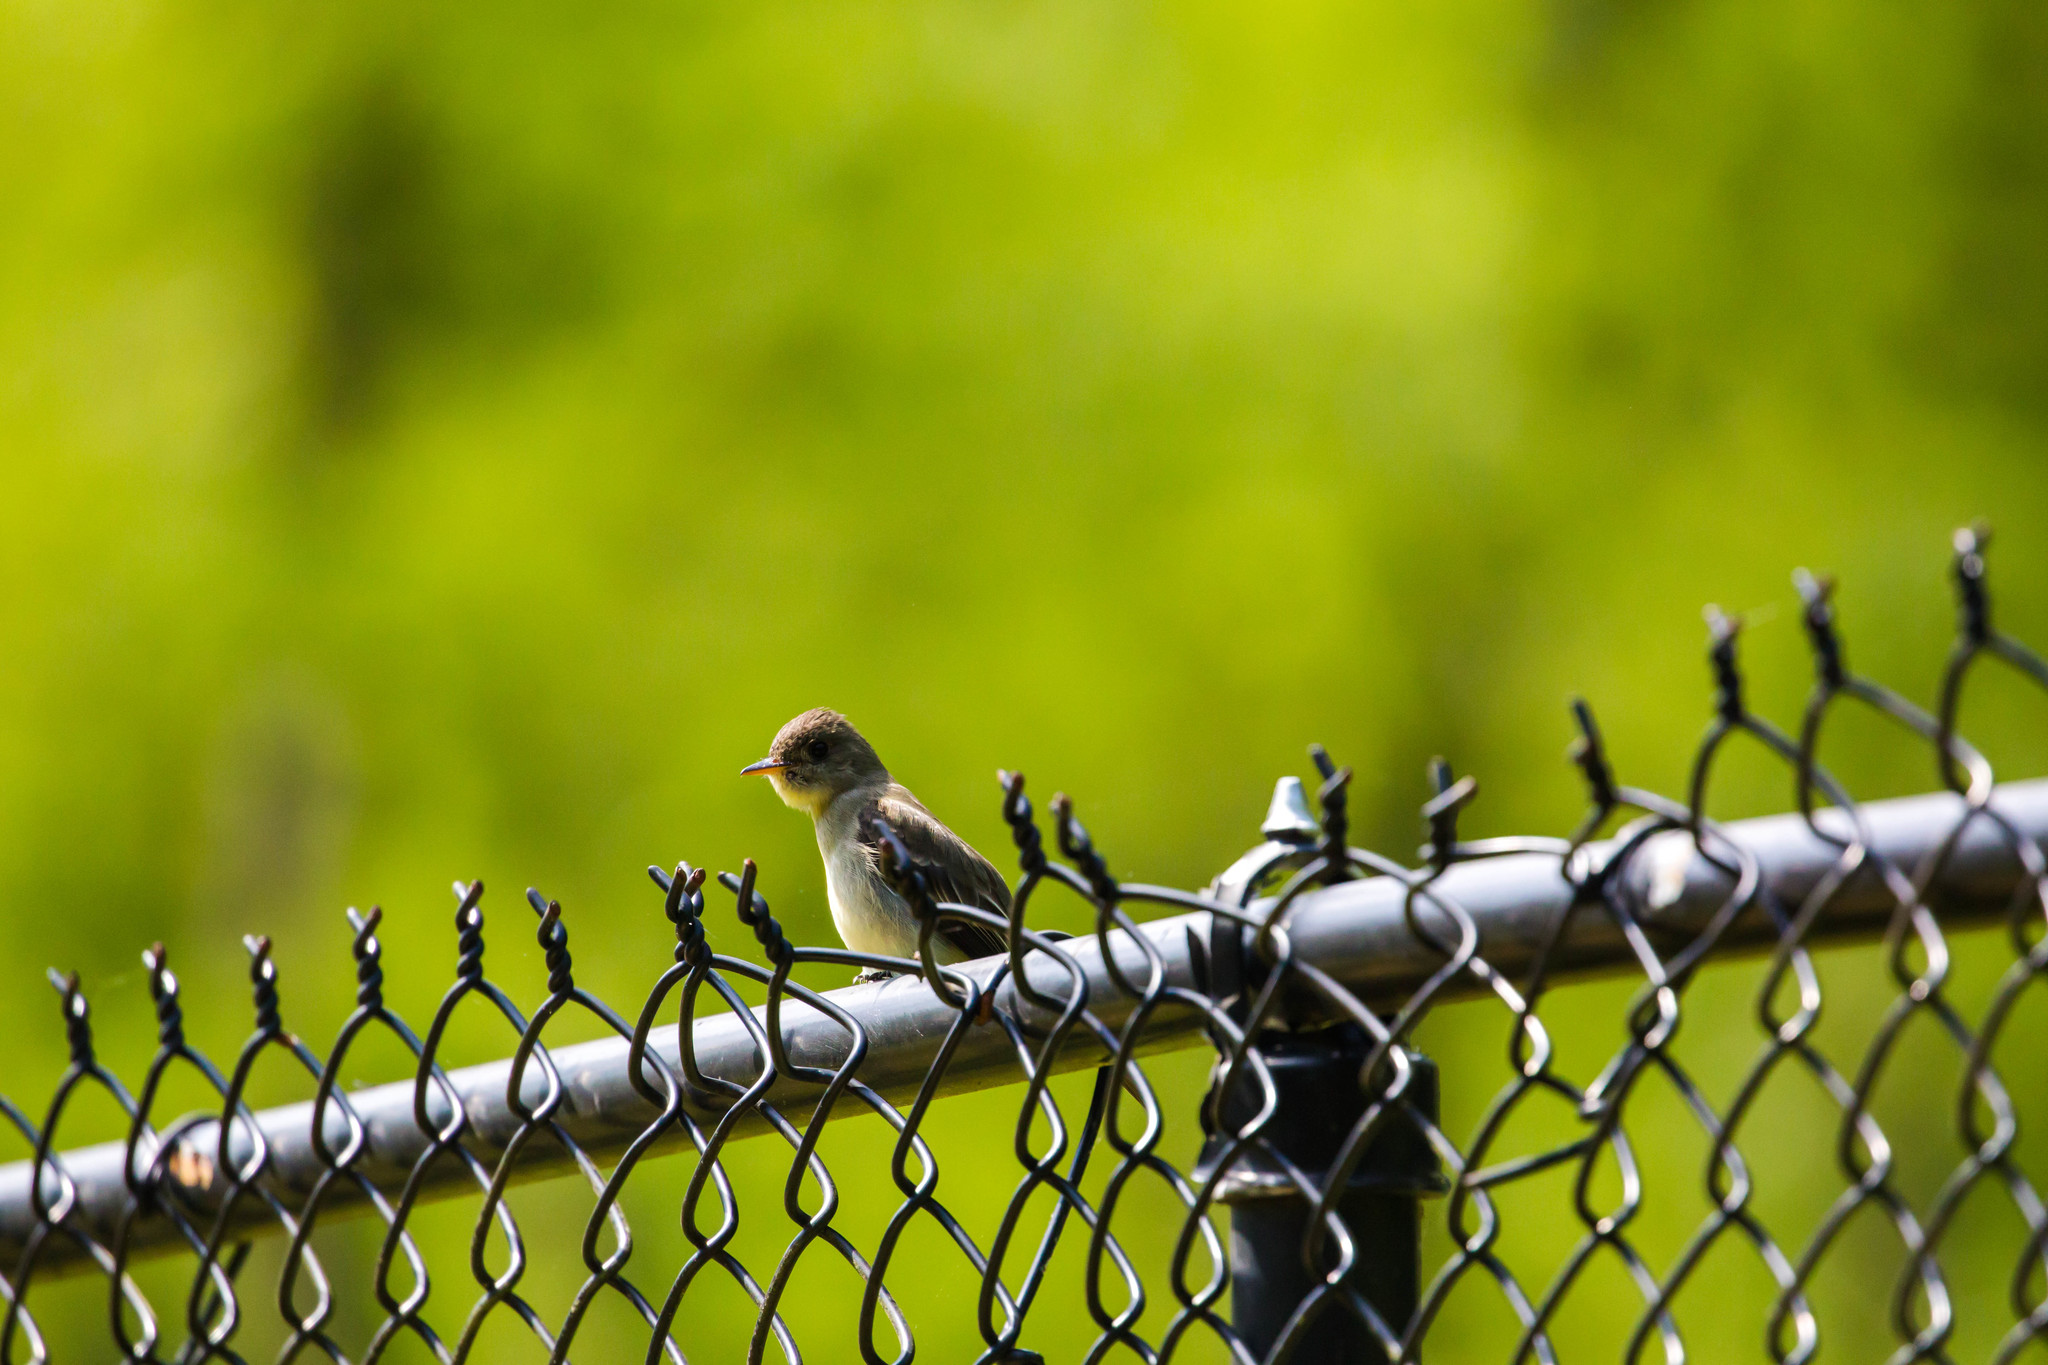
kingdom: Animalia
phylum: Chordata
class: Aves
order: Passeriformes
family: Tyrannidae
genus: Contopus
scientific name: Contopus virens
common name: Eastern wood-pewee
